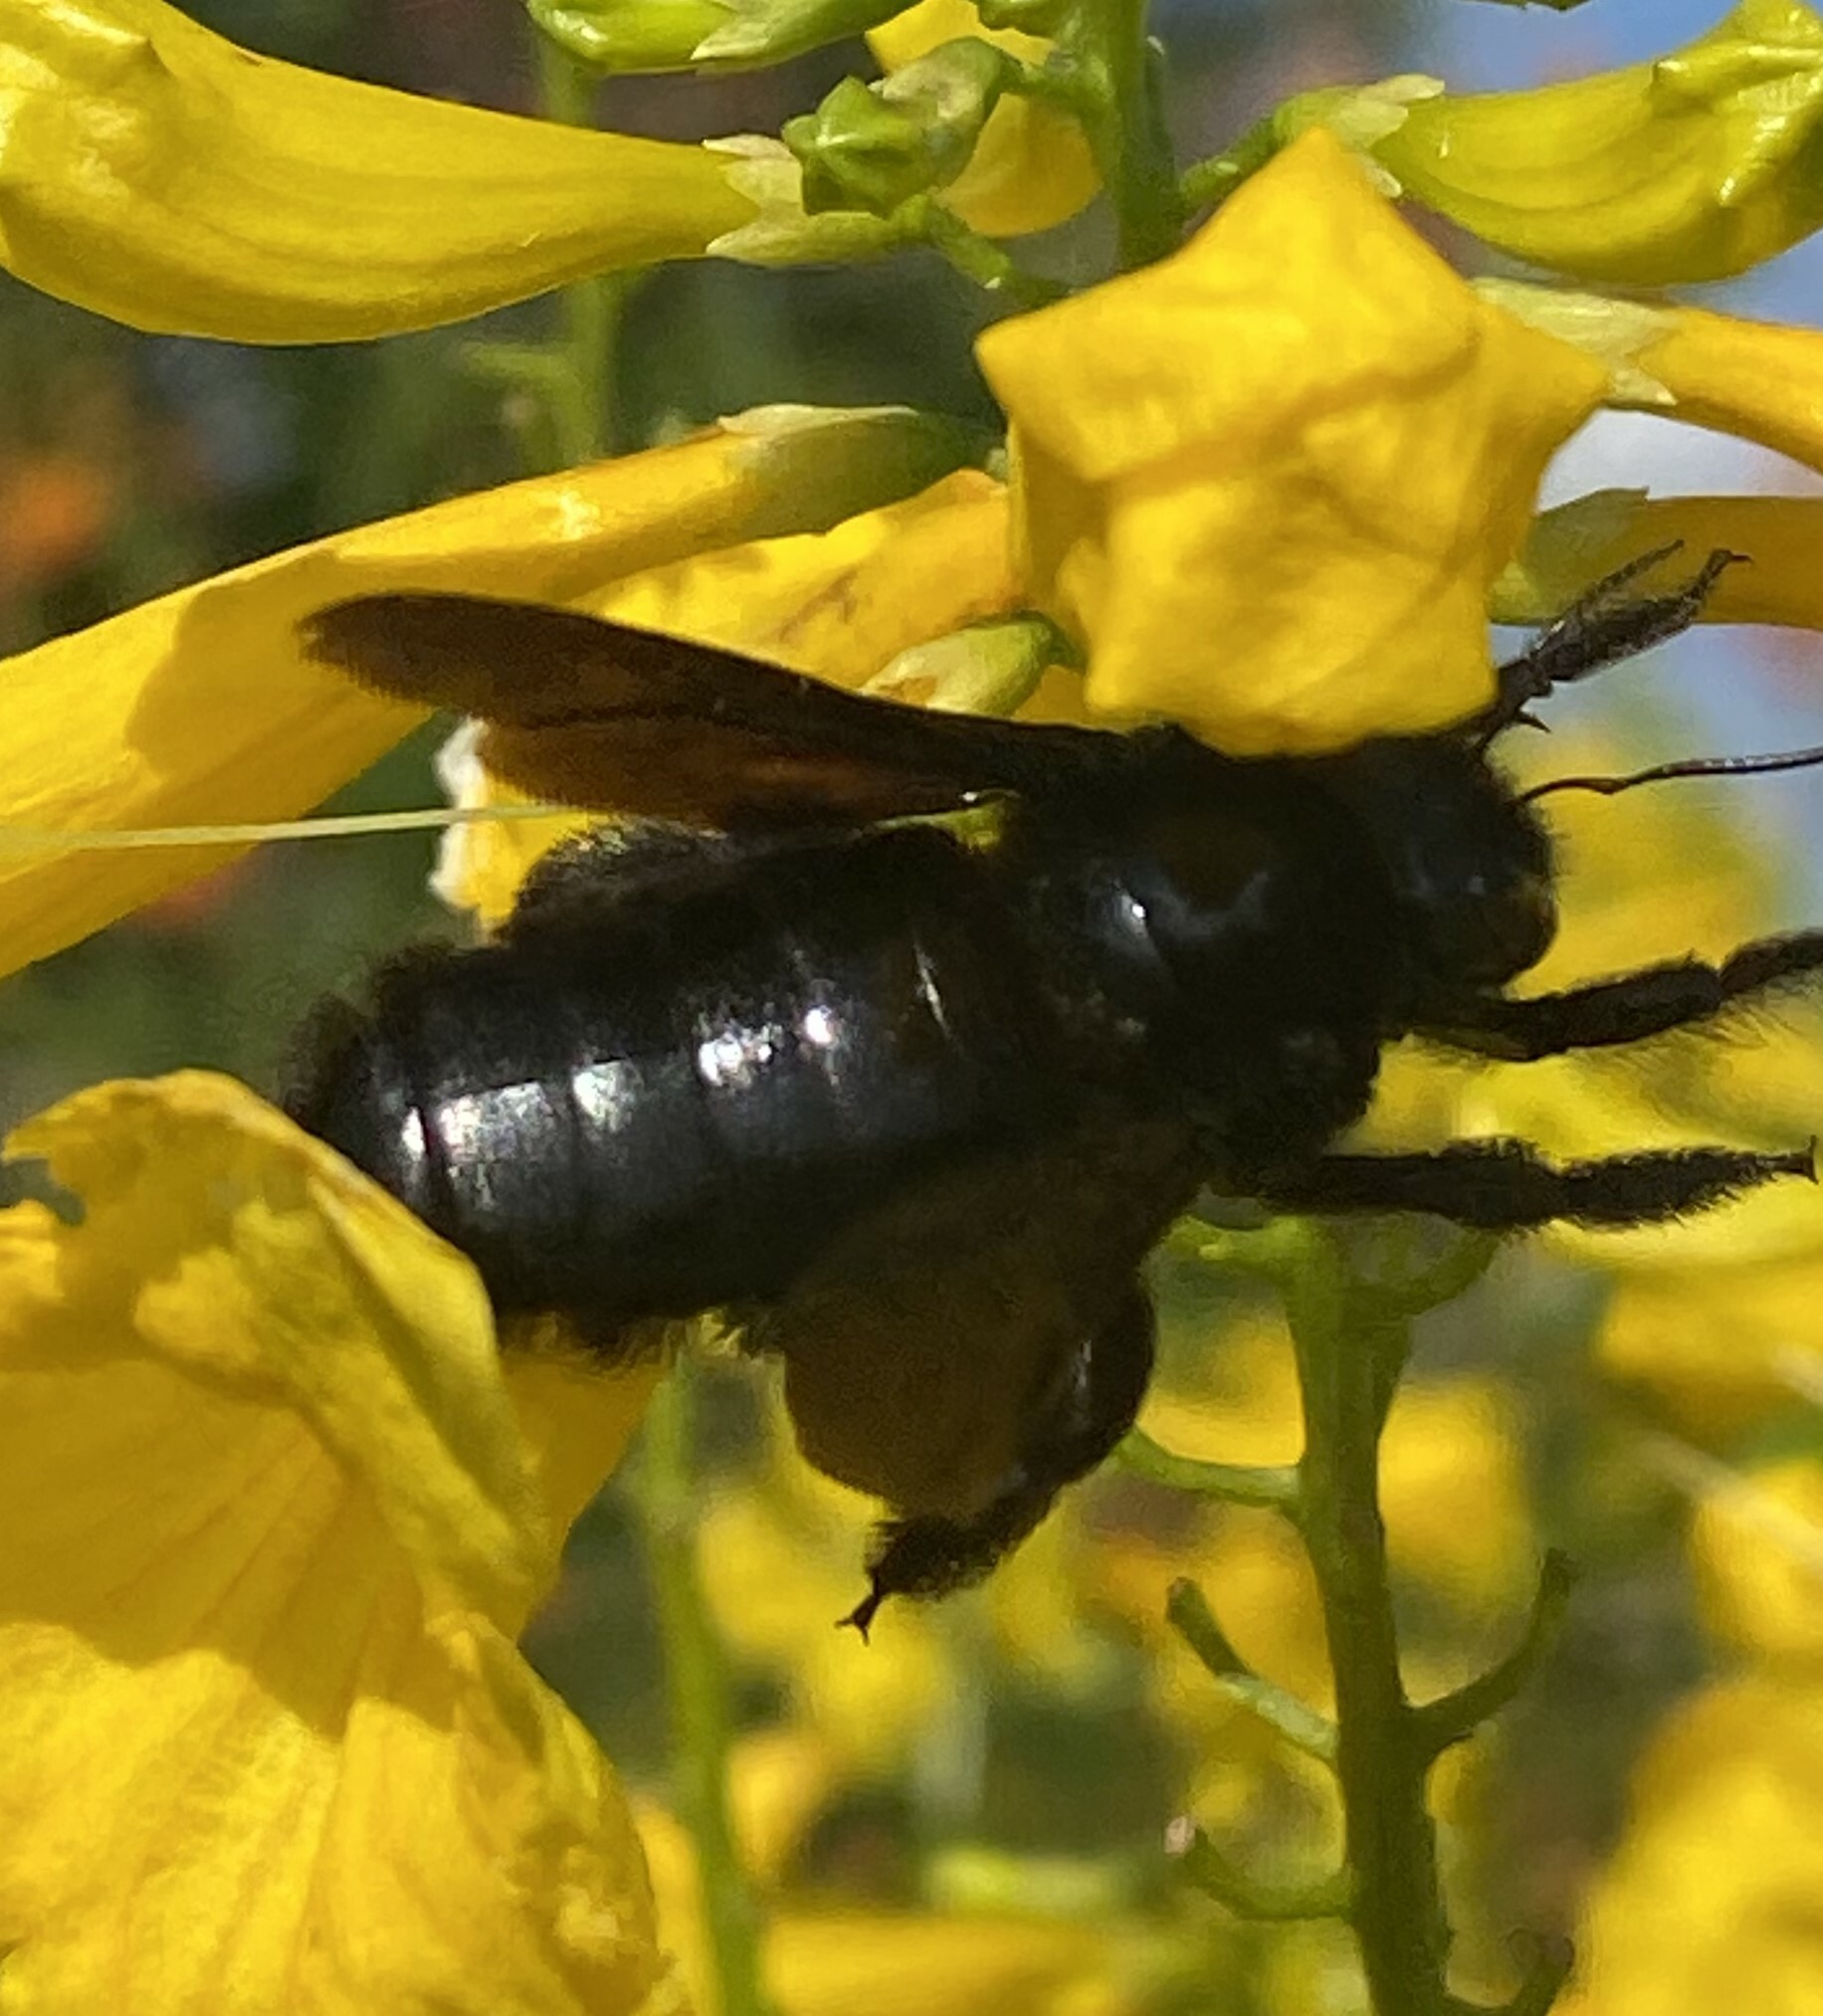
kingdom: Animalia
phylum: Arthropoda
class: Insecta
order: Hymenoptera
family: Apidae
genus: Xylocopa
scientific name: Xylocopa griswoldi
